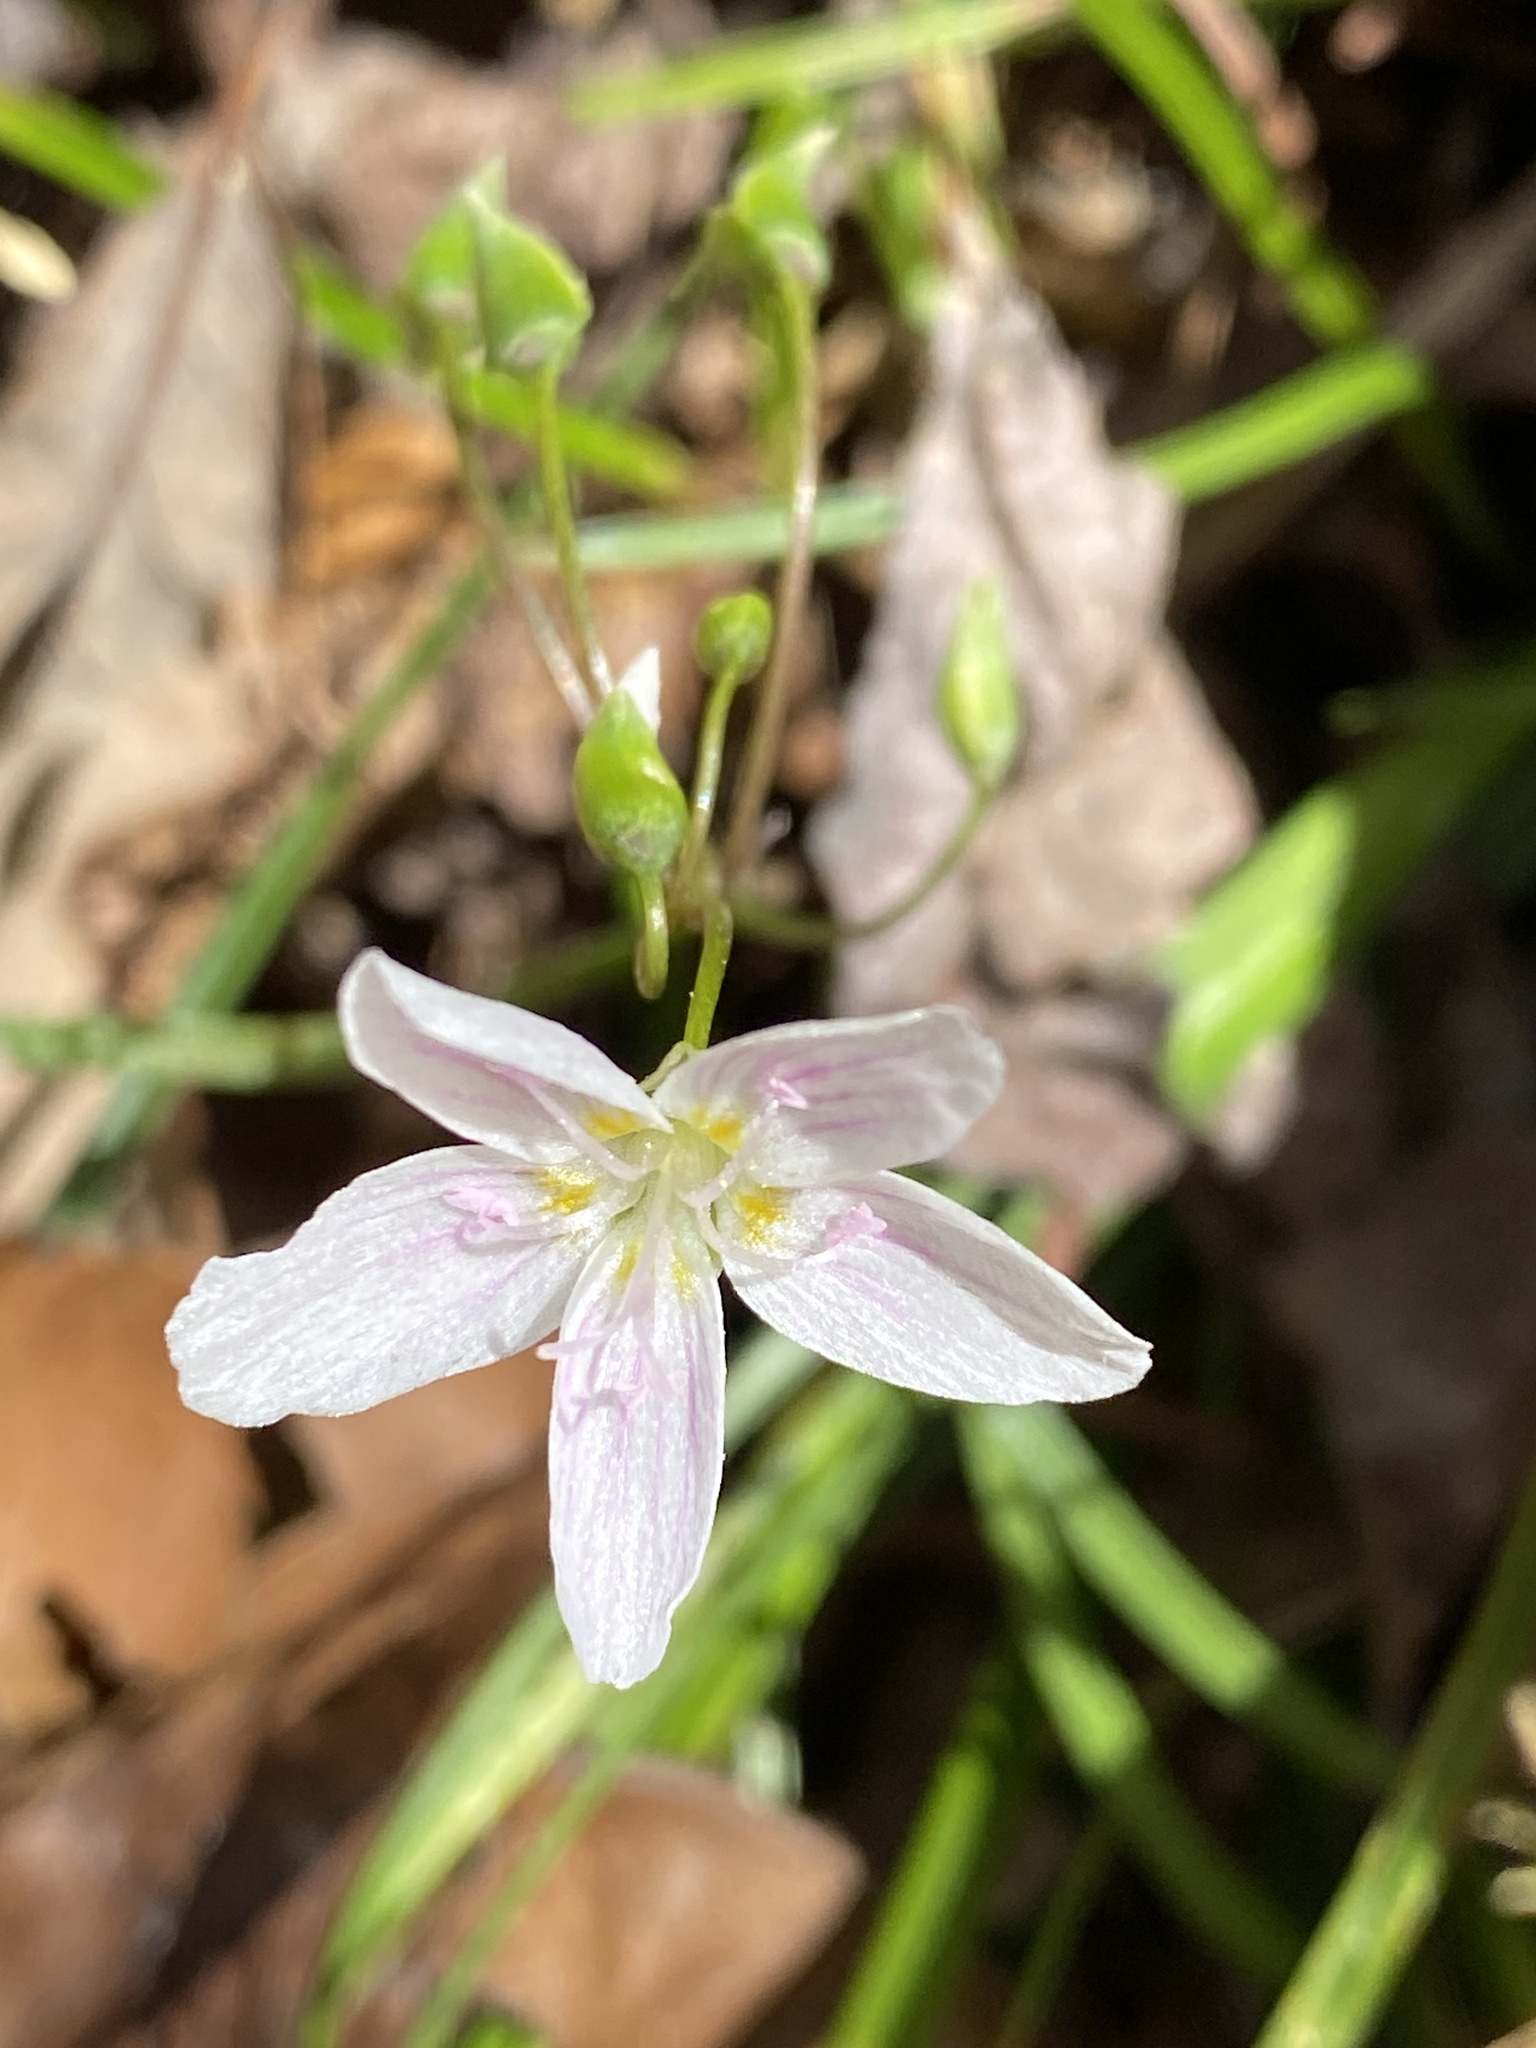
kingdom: Plantae
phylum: Tracheophyta
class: Magnoliopsida
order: Caryophyllales
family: Montiaceae
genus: Claytonia
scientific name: Claytonia virginica
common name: Virginia springbeauty
